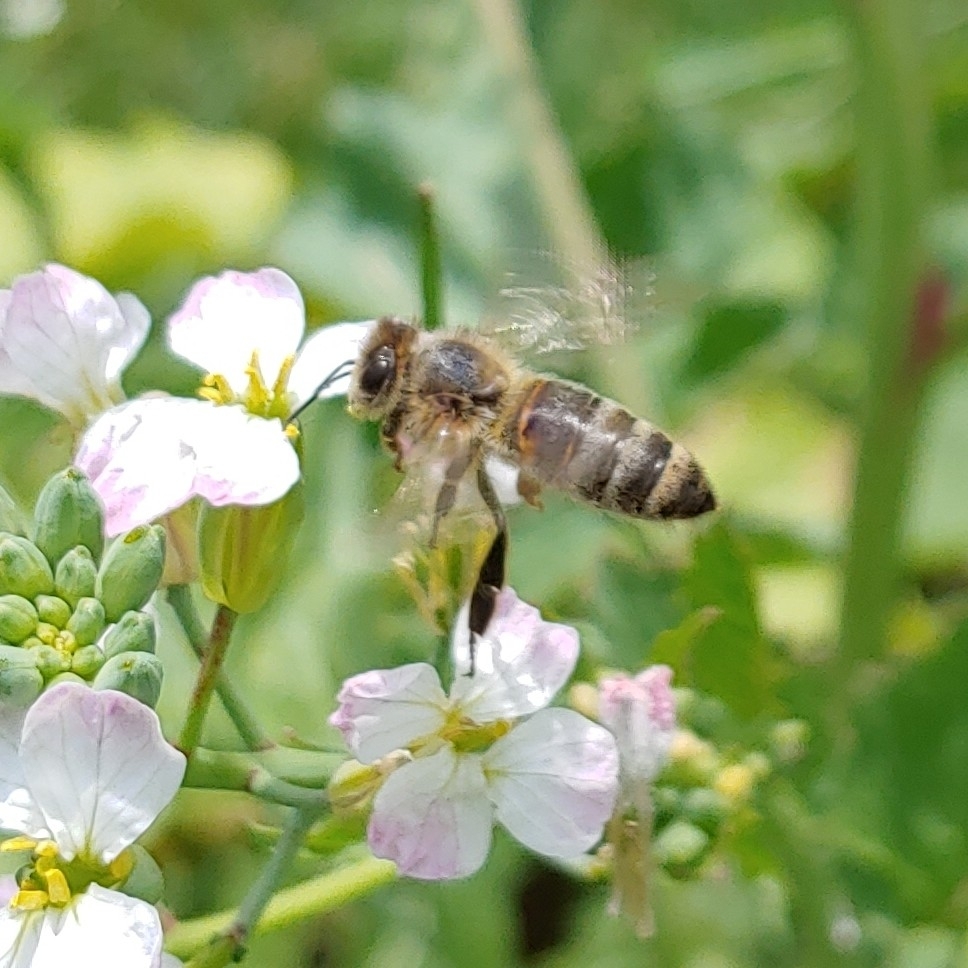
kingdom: Animalia
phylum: Arthropoda
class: Insecta
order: Hymenoptera
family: Apidae
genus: Apis
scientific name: Apis mellifera
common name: Honey bee
